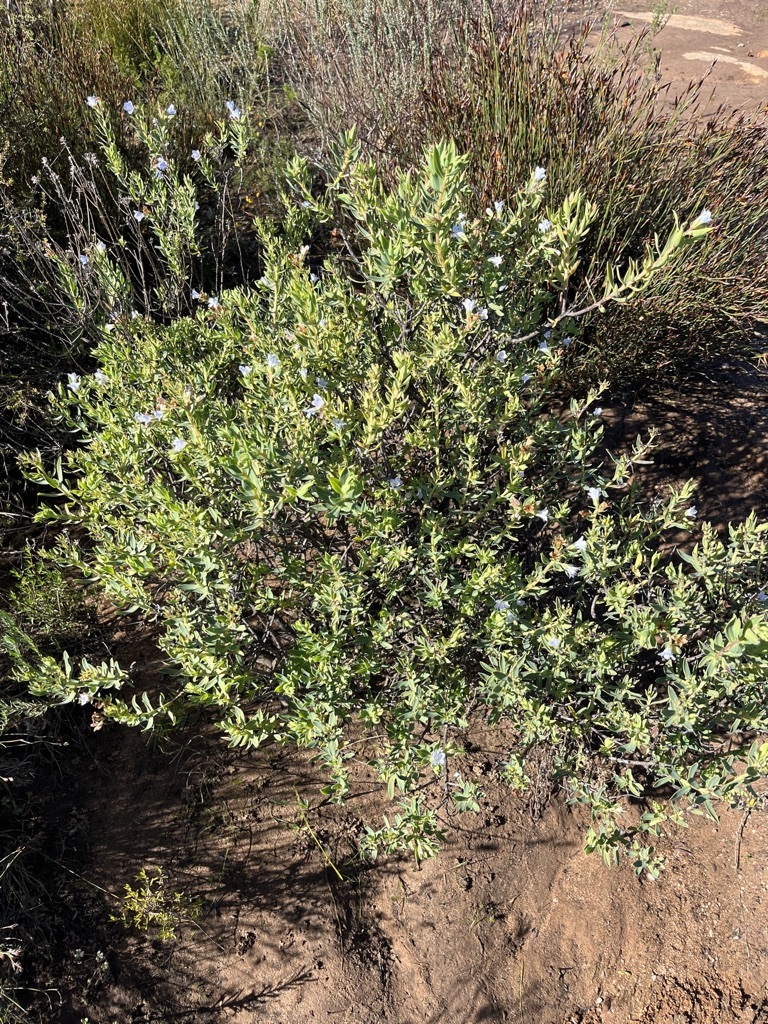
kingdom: Plantae
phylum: Tracheophyta
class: Magnoliopsida
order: Boraginales
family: Boraginaceae
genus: Lobostemon
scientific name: Lobostemon glaucophyllus
